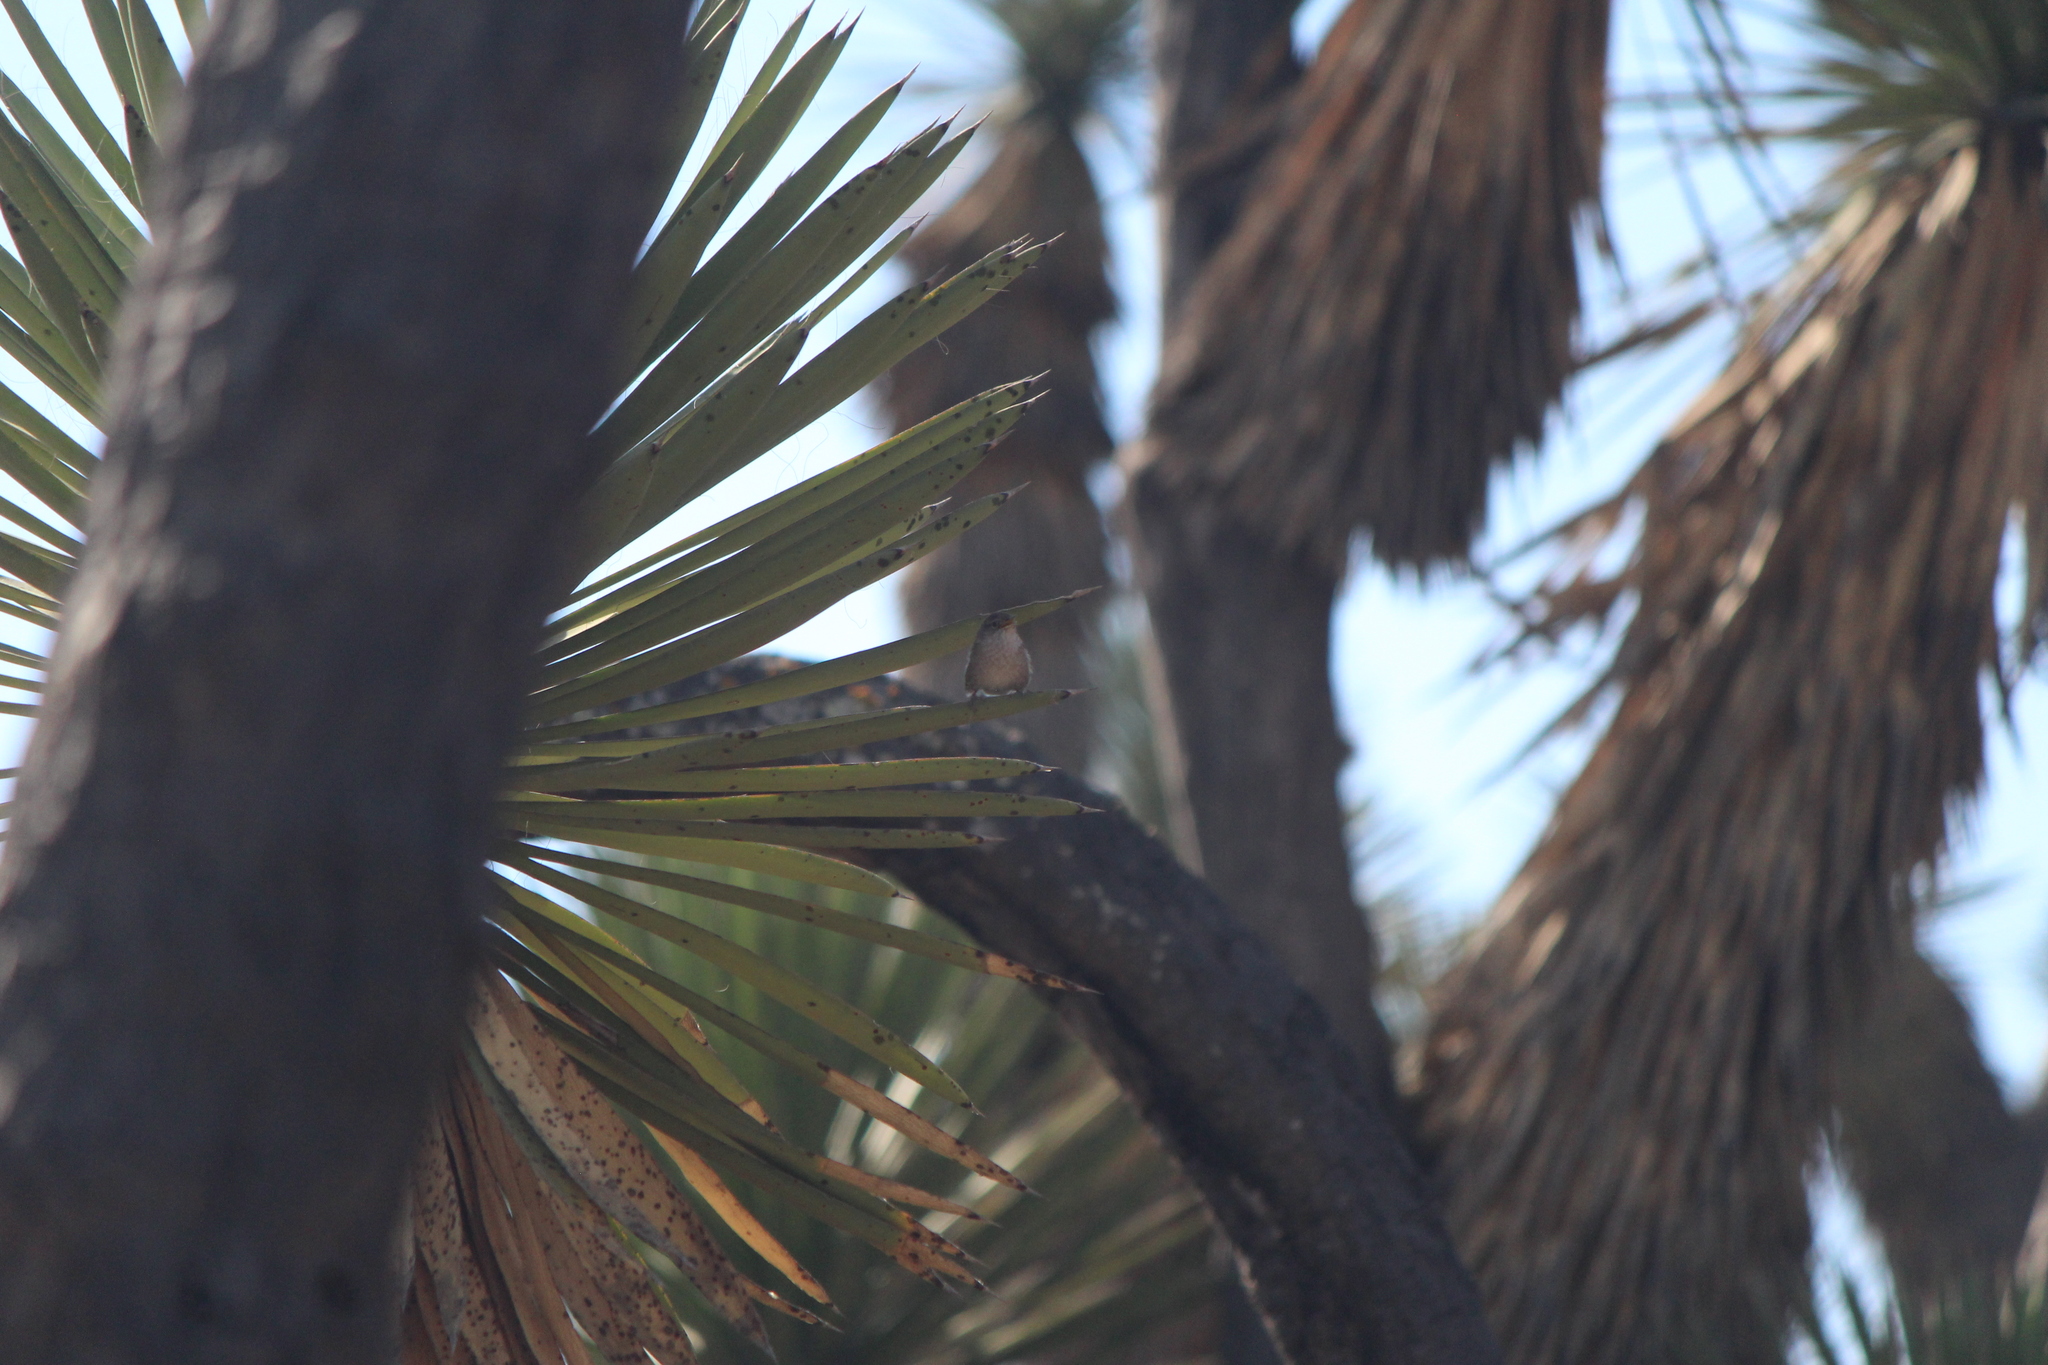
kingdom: Animalia
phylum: Chordata
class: Aves
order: Passeriformes
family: Troglodytidae
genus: Troglodytes
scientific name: Troglodytes aedon
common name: House wren
